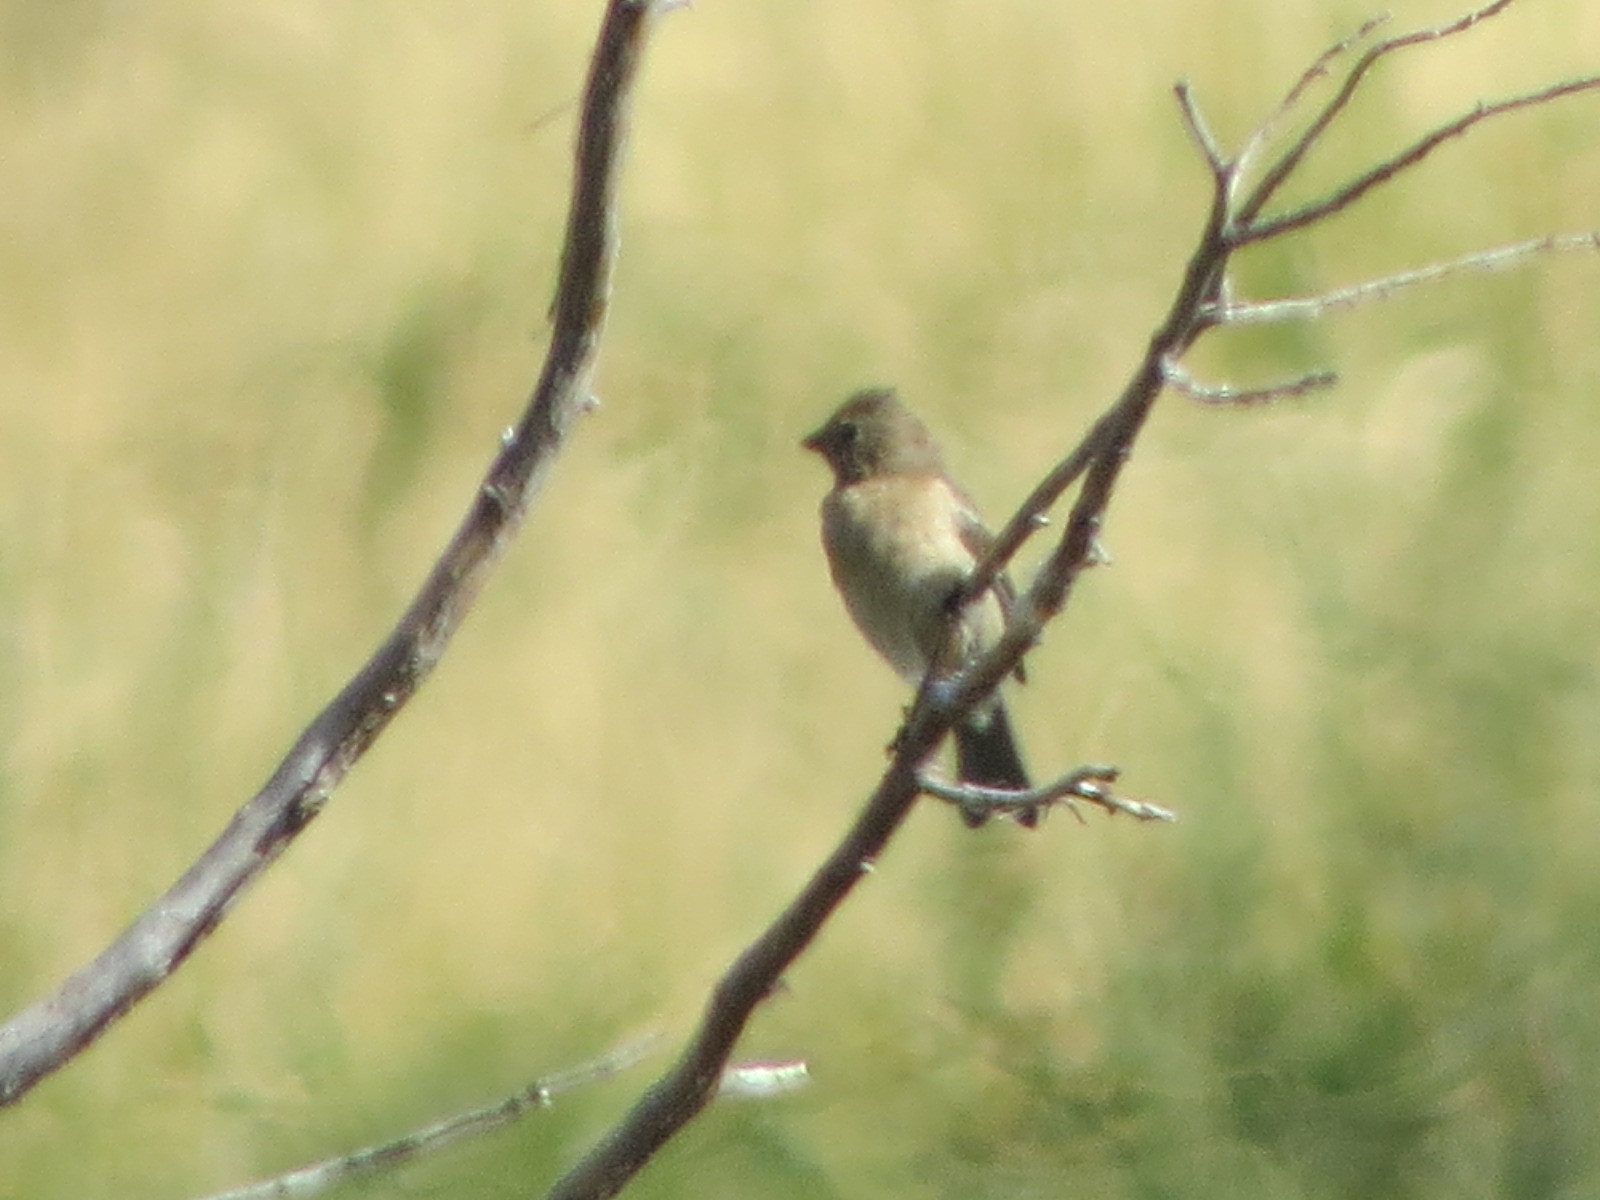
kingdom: Animalia
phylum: Chordata
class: Aves
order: Passeriformes
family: Cardinalidae
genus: Passerina
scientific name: Passerina amoena
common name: Lazuli bunting
